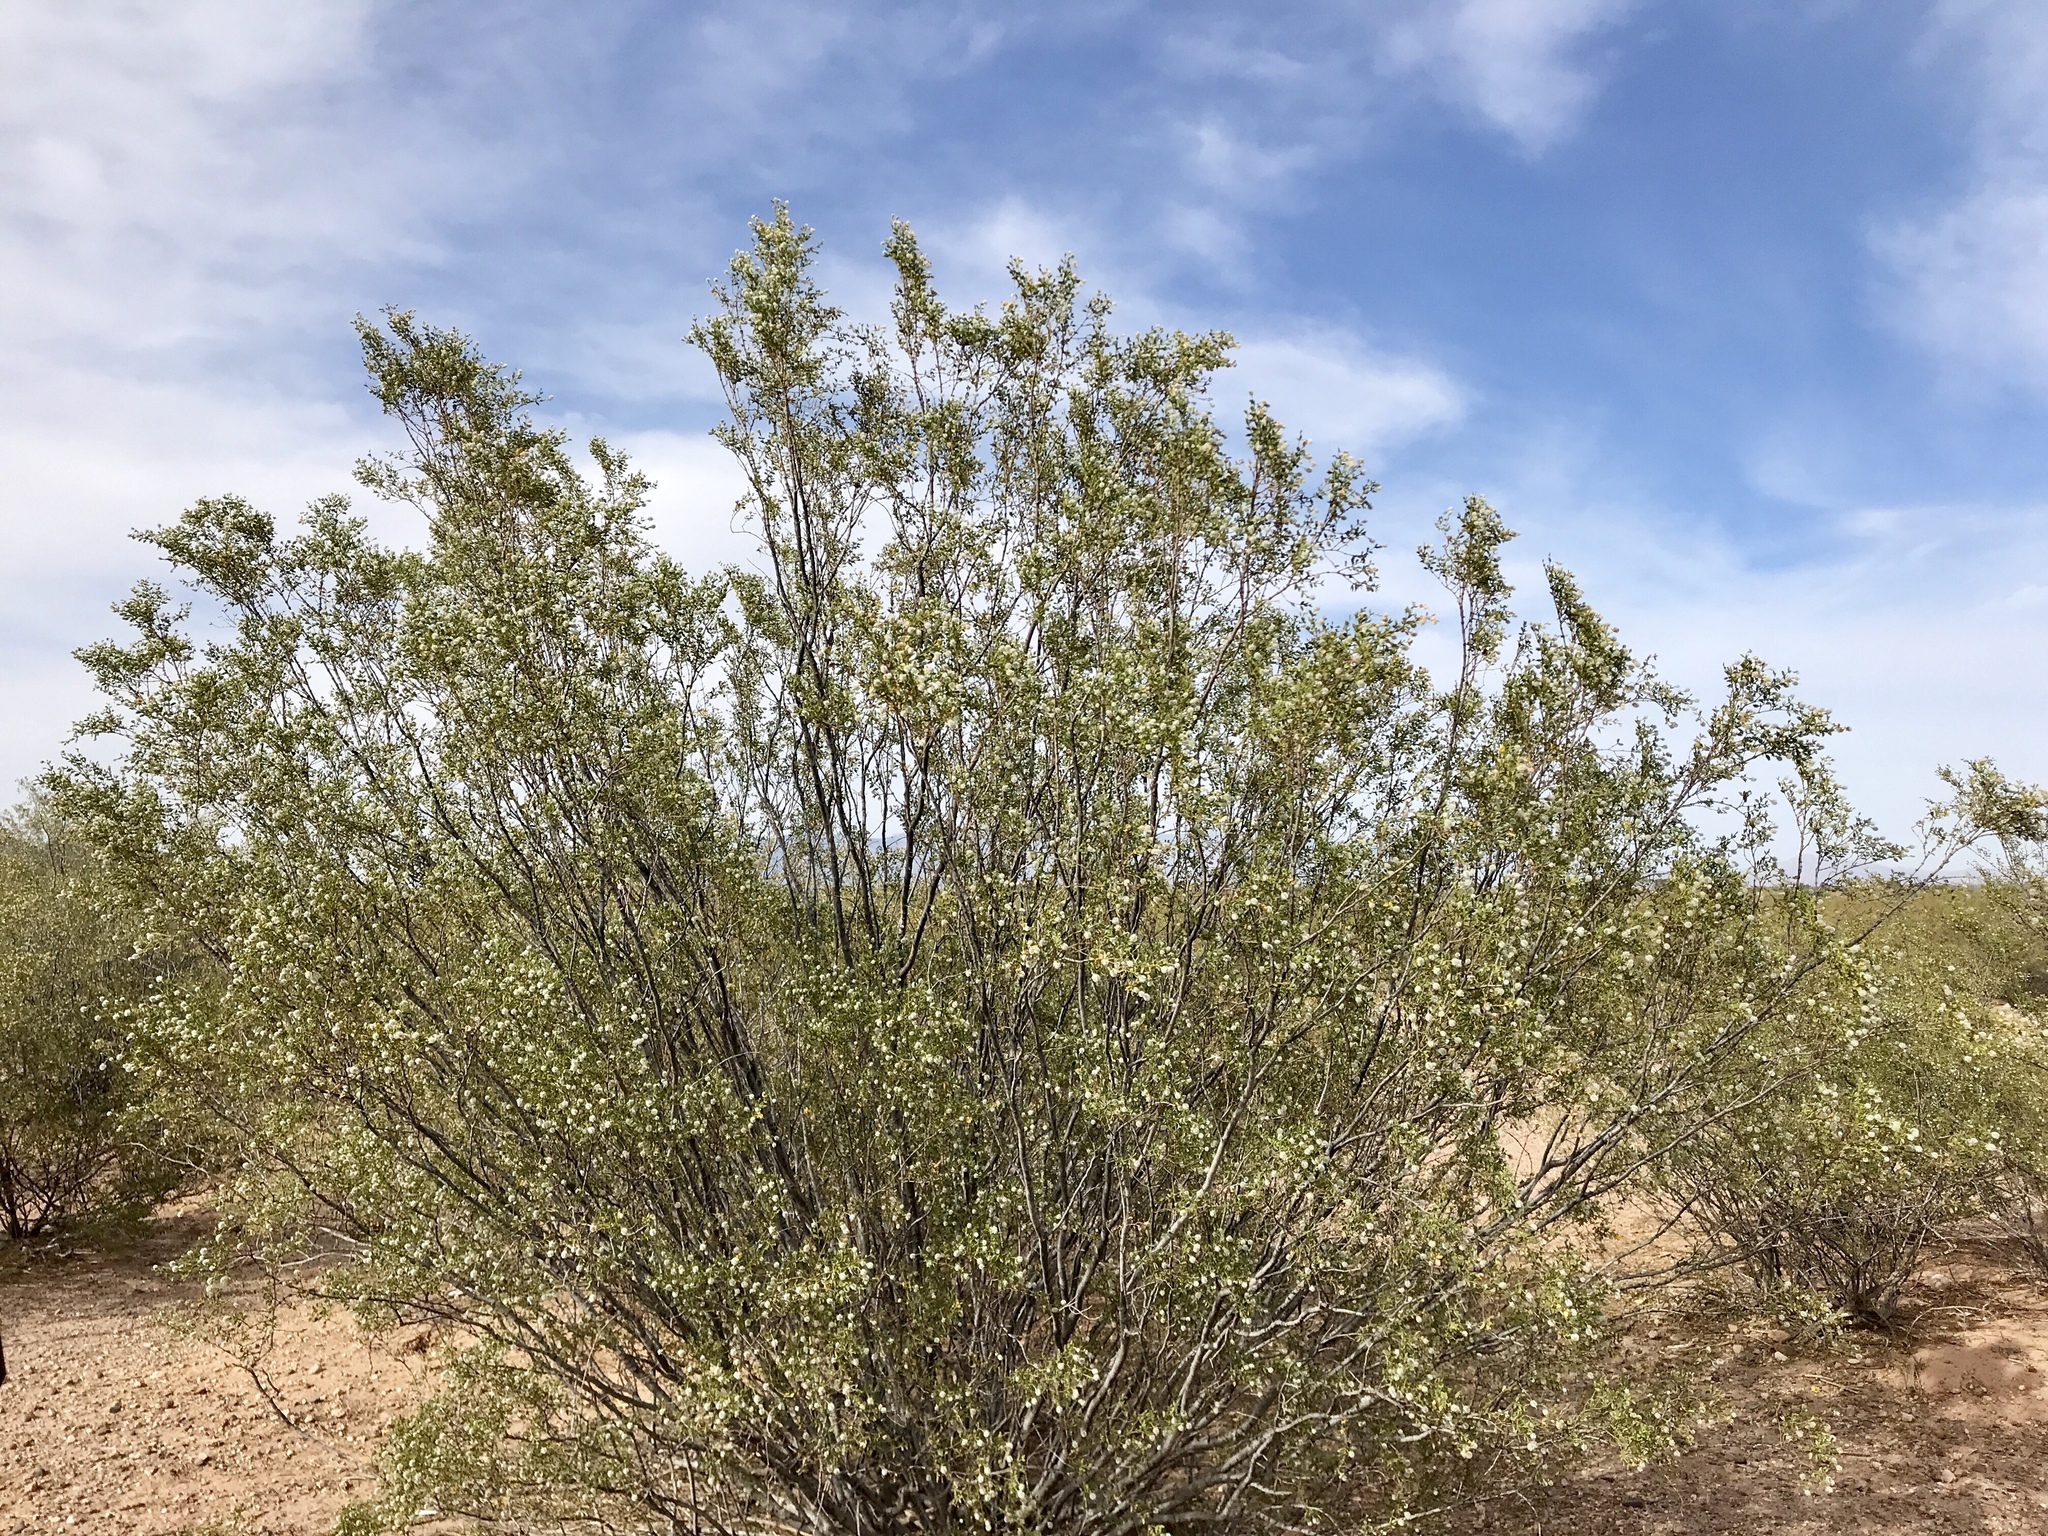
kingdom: Plantae
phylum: Tracheophyta
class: Magnoliopsida
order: Zygophyllales
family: Zygophyllaceae
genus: Larrea
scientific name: Larrea tridentata
